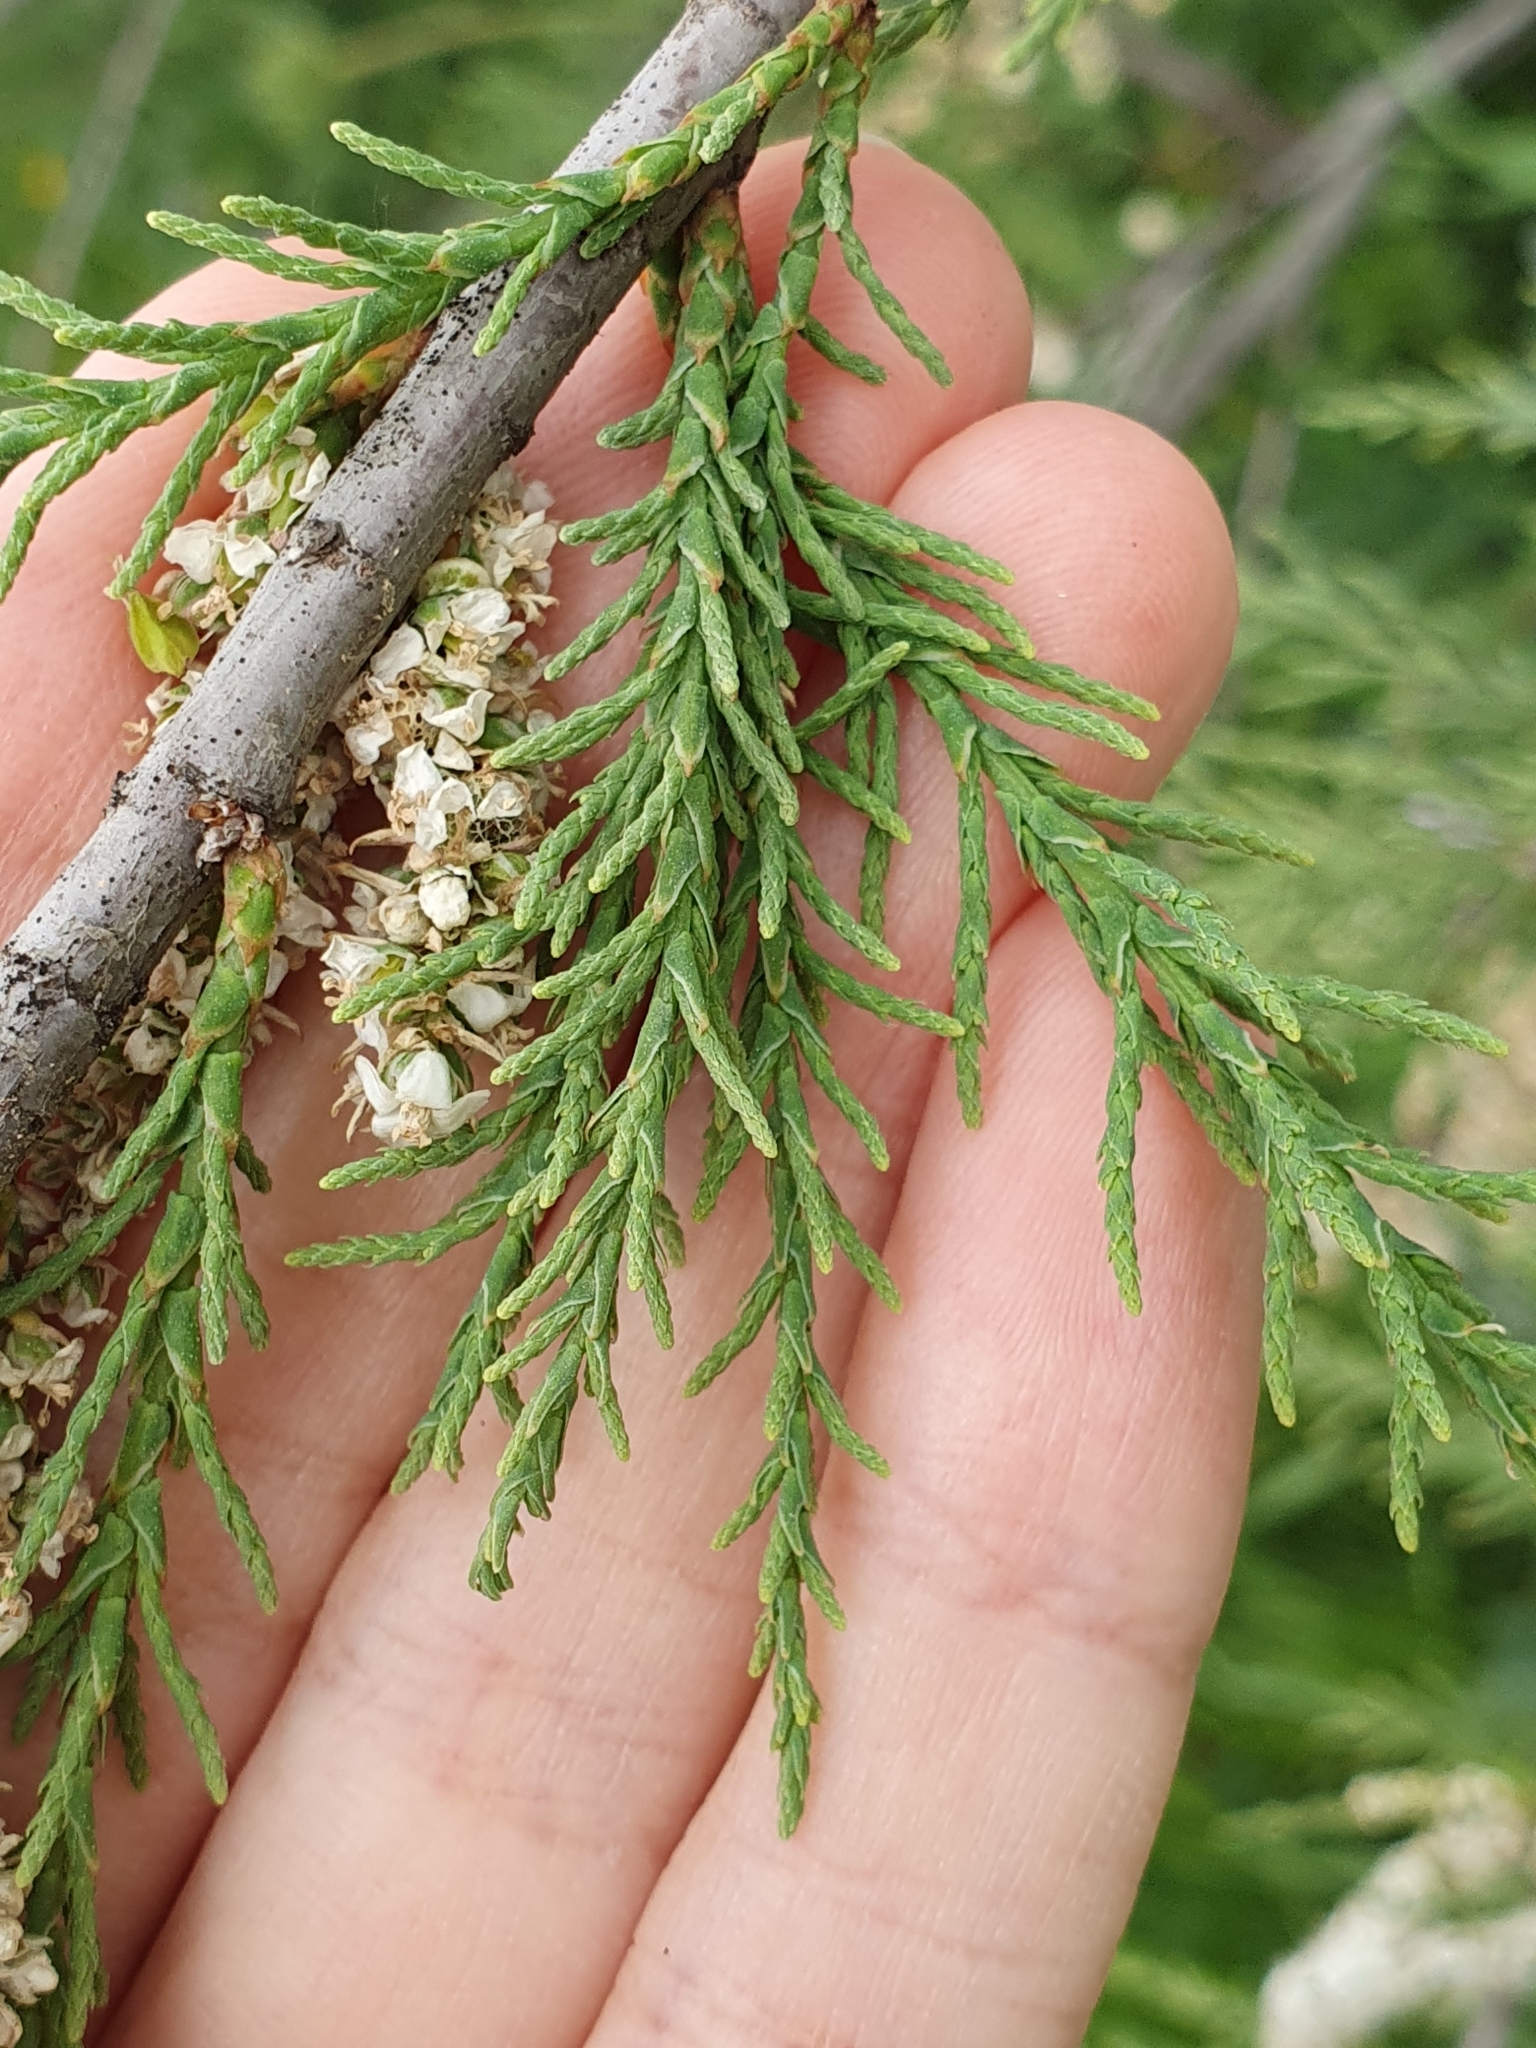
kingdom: Plantae
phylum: Tracheophyta
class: Magnoliopsida
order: Caryophyllales
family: Tamaricaceae
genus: Tamarix
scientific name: Tamarix africana
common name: African tamarisk
